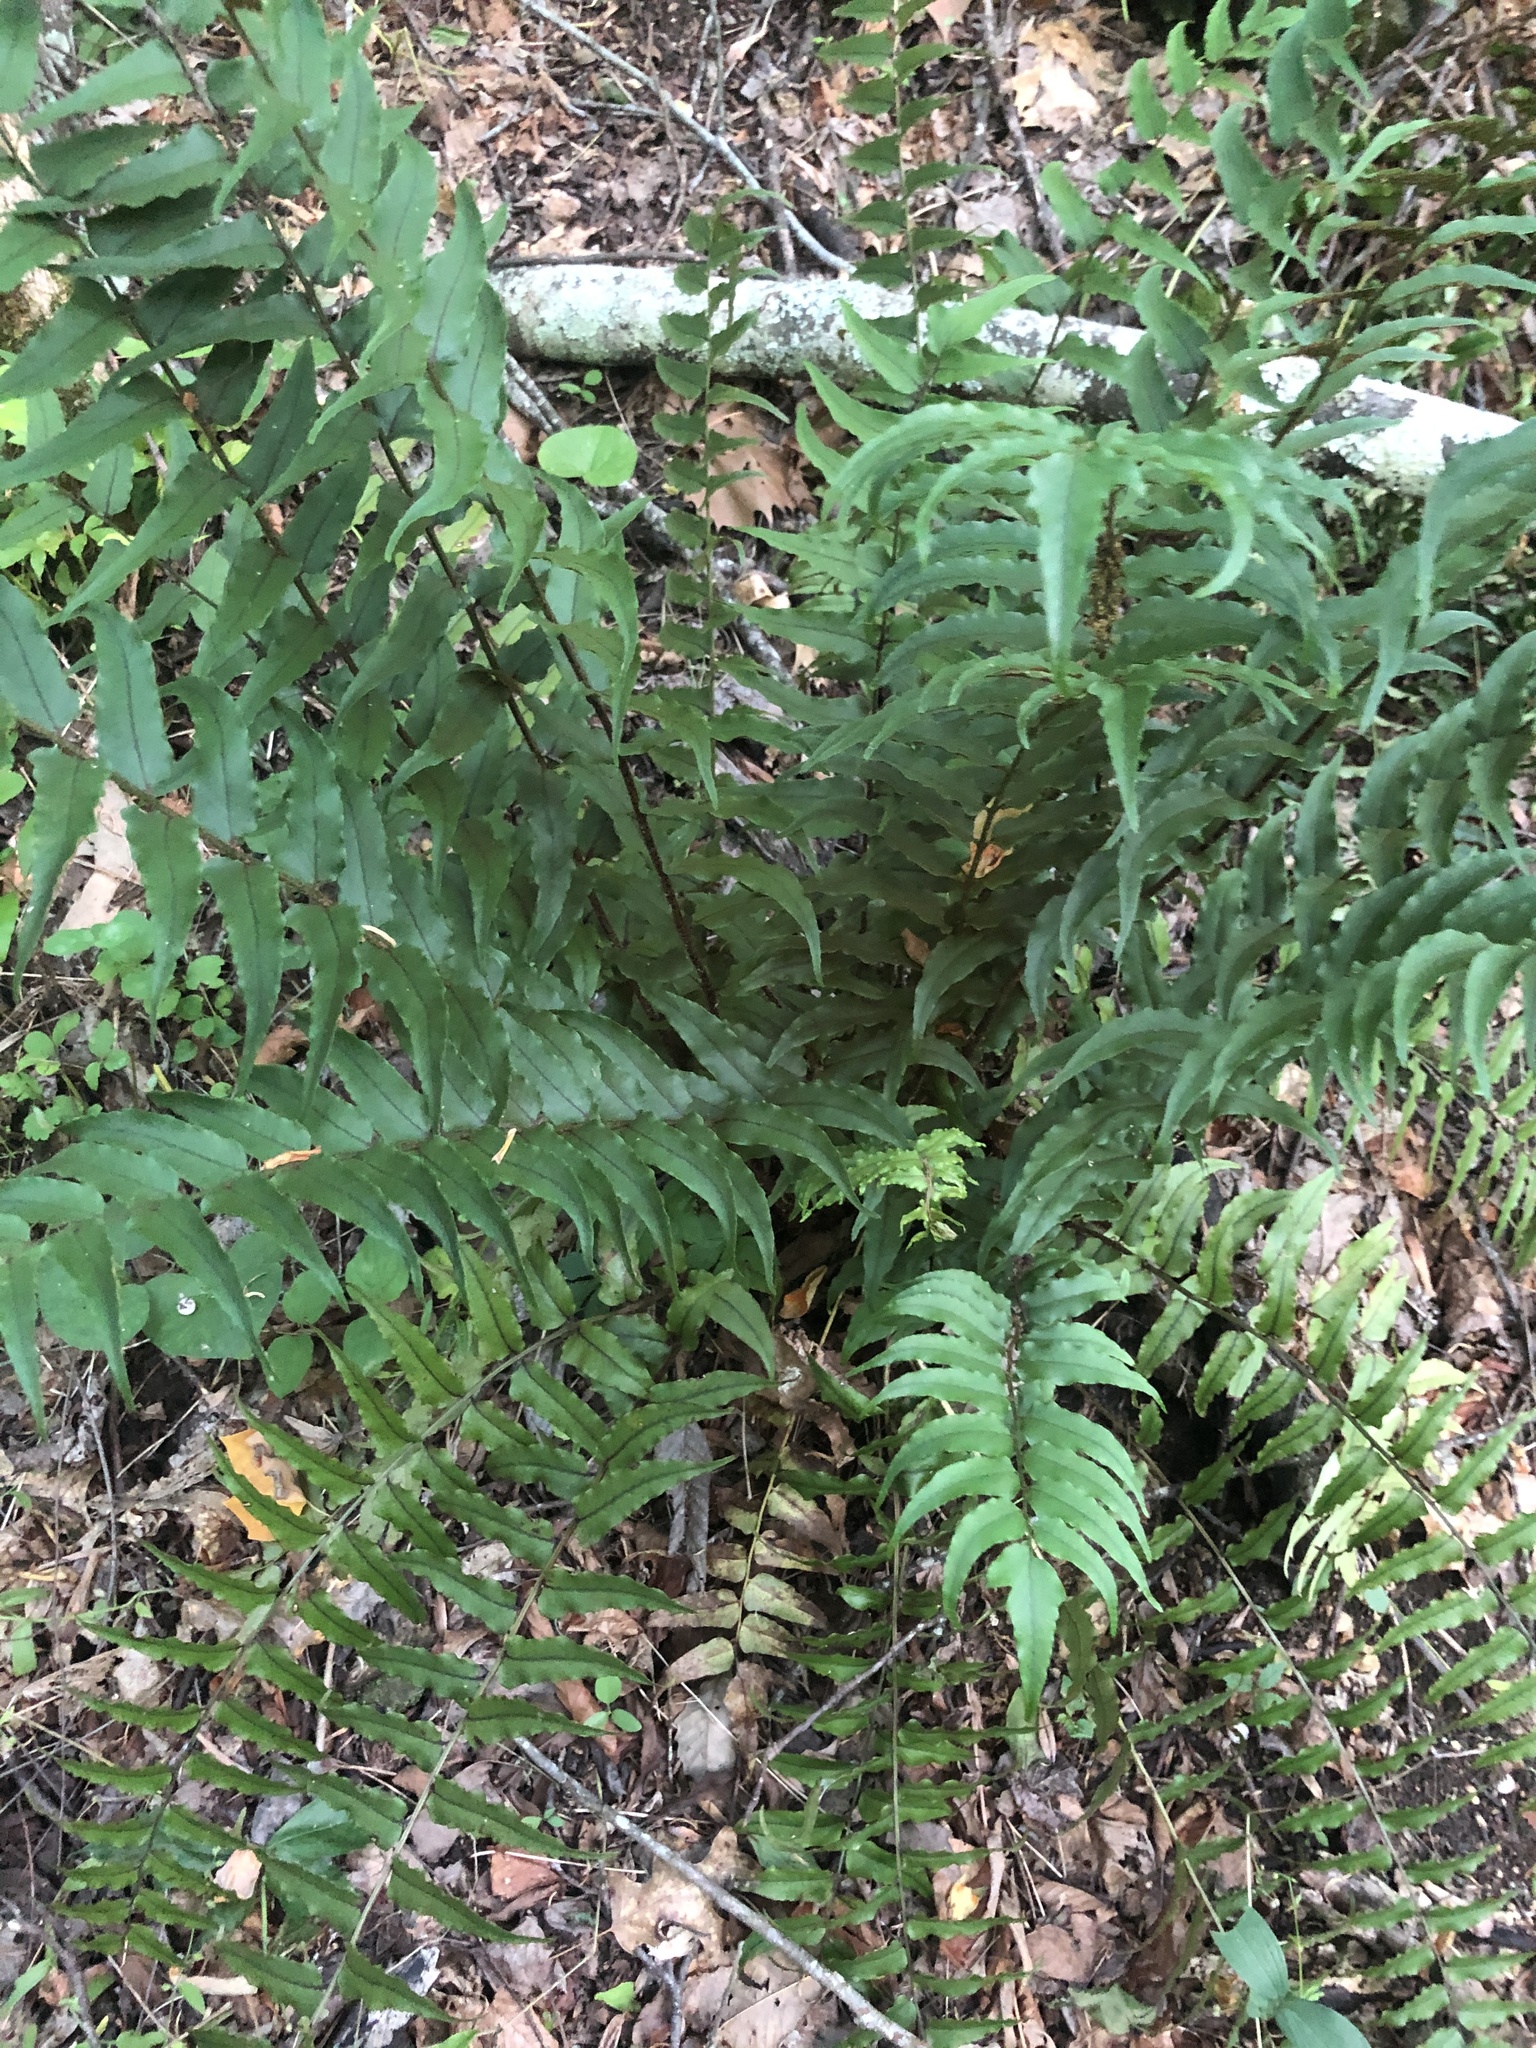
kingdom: Plantae
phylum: Tracheophyta
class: Polypodiopsida
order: Polypodiales
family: Dryopteridaceae
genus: Cyrtomium
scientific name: Cyrtomium fortunei
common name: Asian netvein hollyfern
